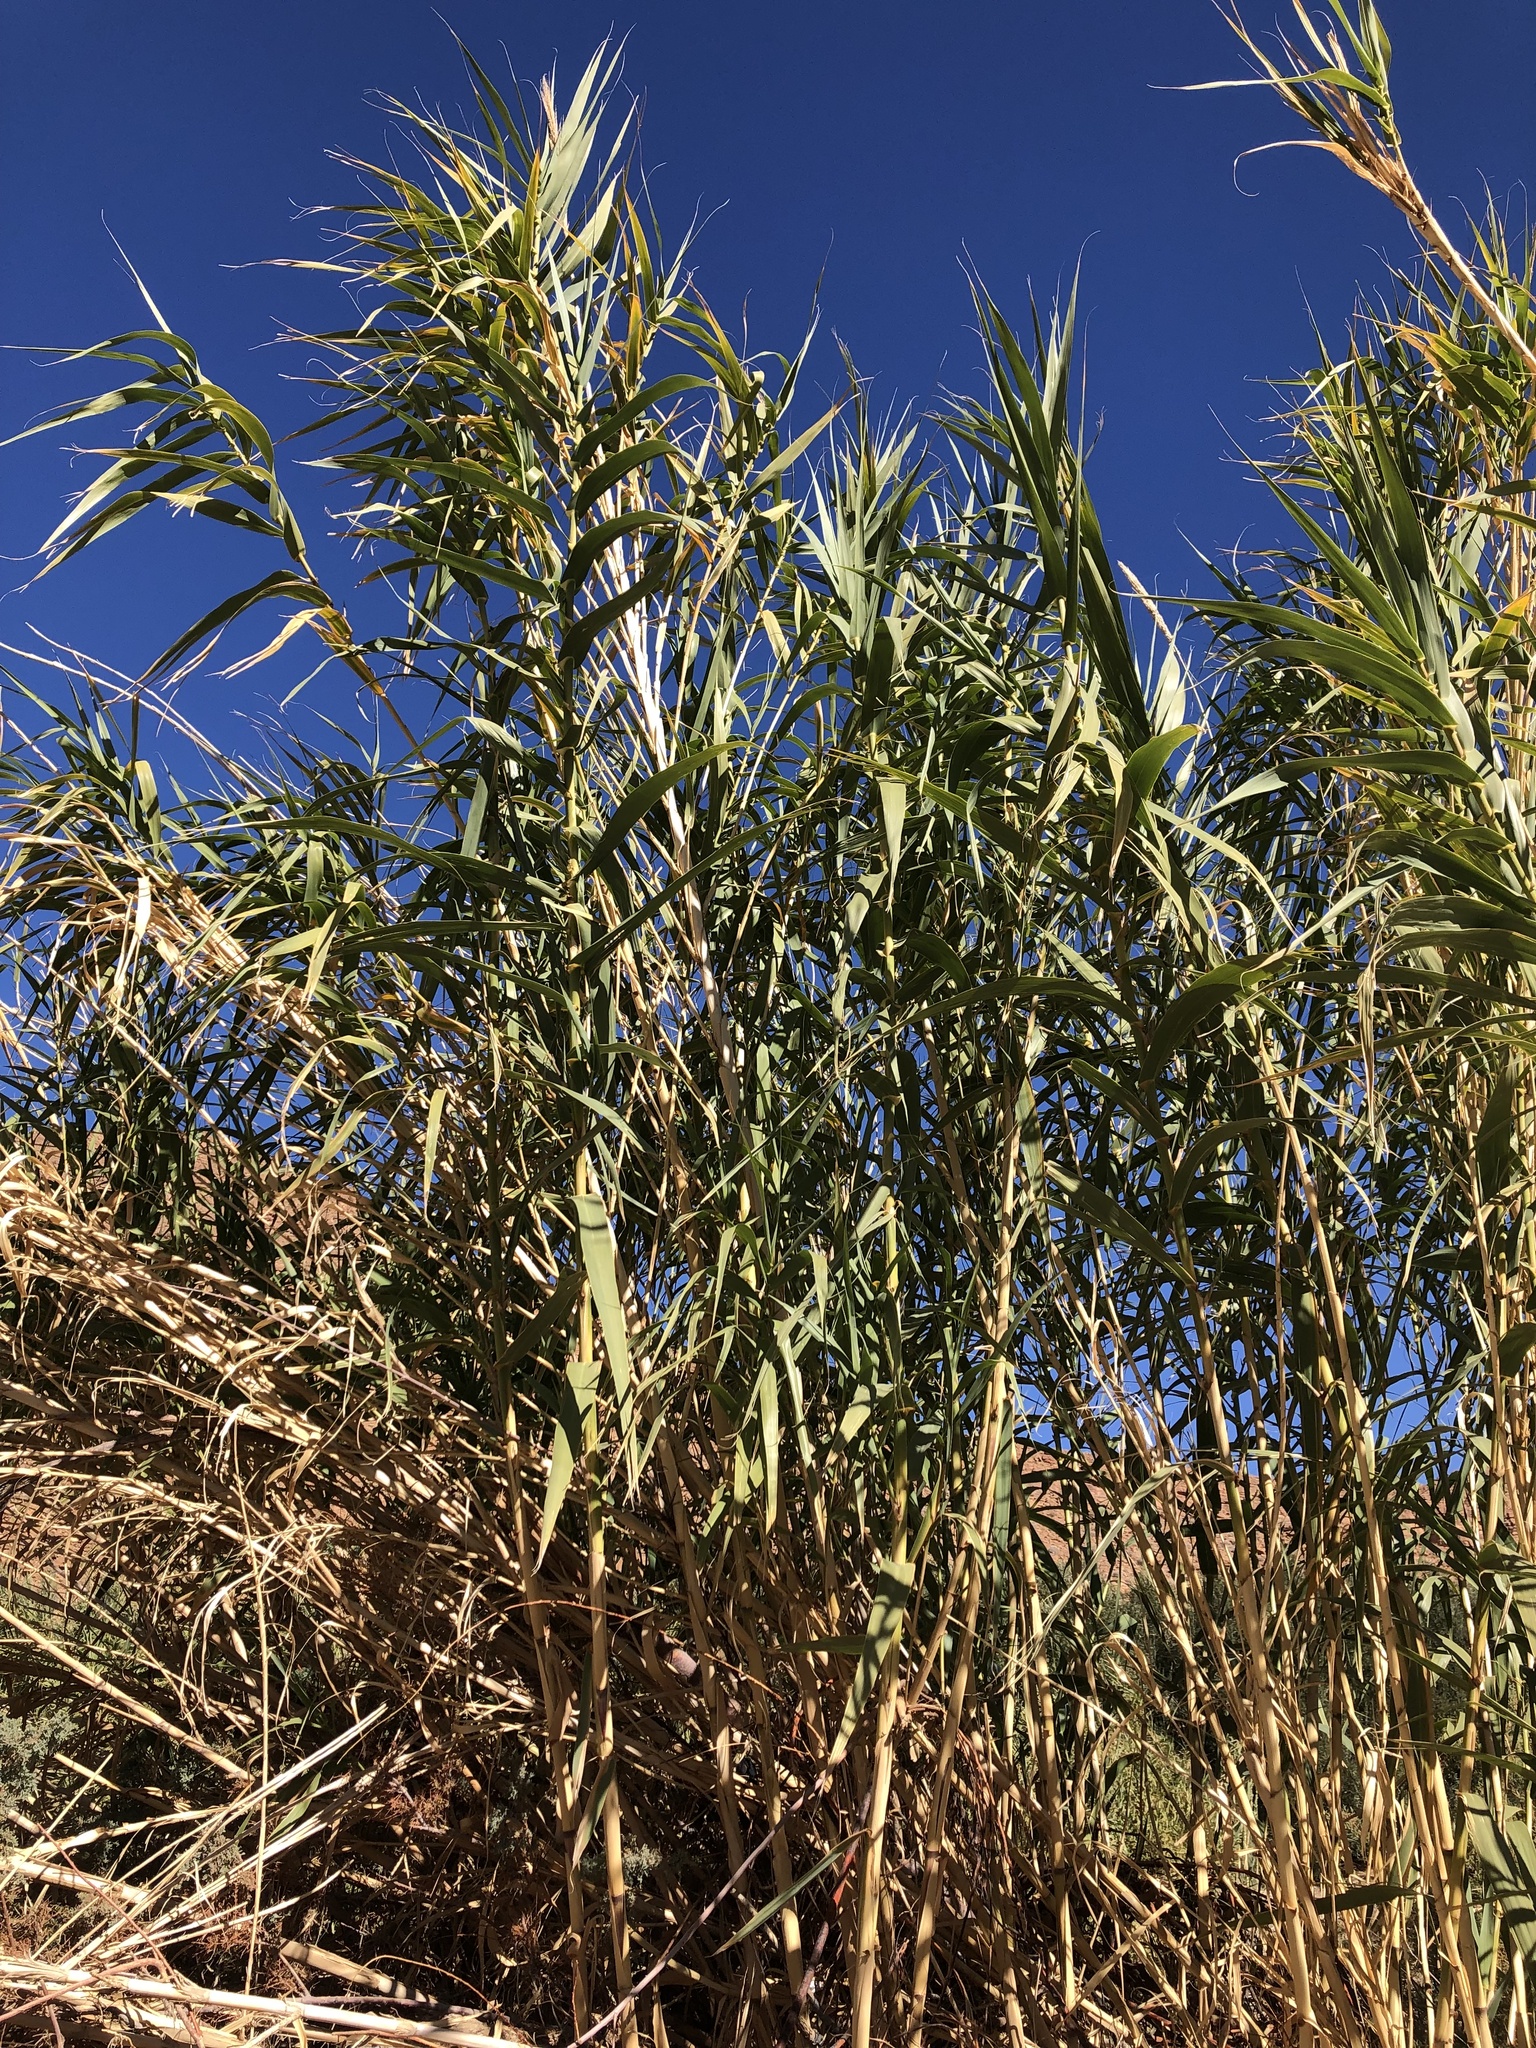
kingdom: Plantae
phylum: Tracheophyta
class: Liliopsida
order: Poales
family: Poaceae
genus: Arundo
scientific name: Arundo donax
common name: Giant reed
